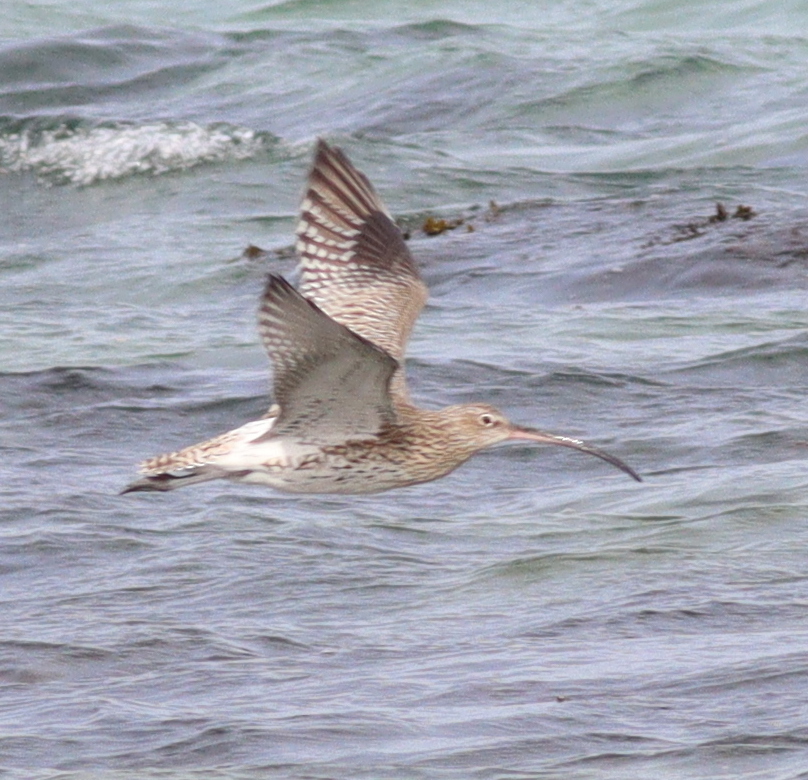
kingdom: Animalia
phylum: Chordata
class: Aves
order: Charadriiformes
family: Scolopacidae
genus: Numenius
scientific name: Numenius arquata
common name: Eurasian curlew
